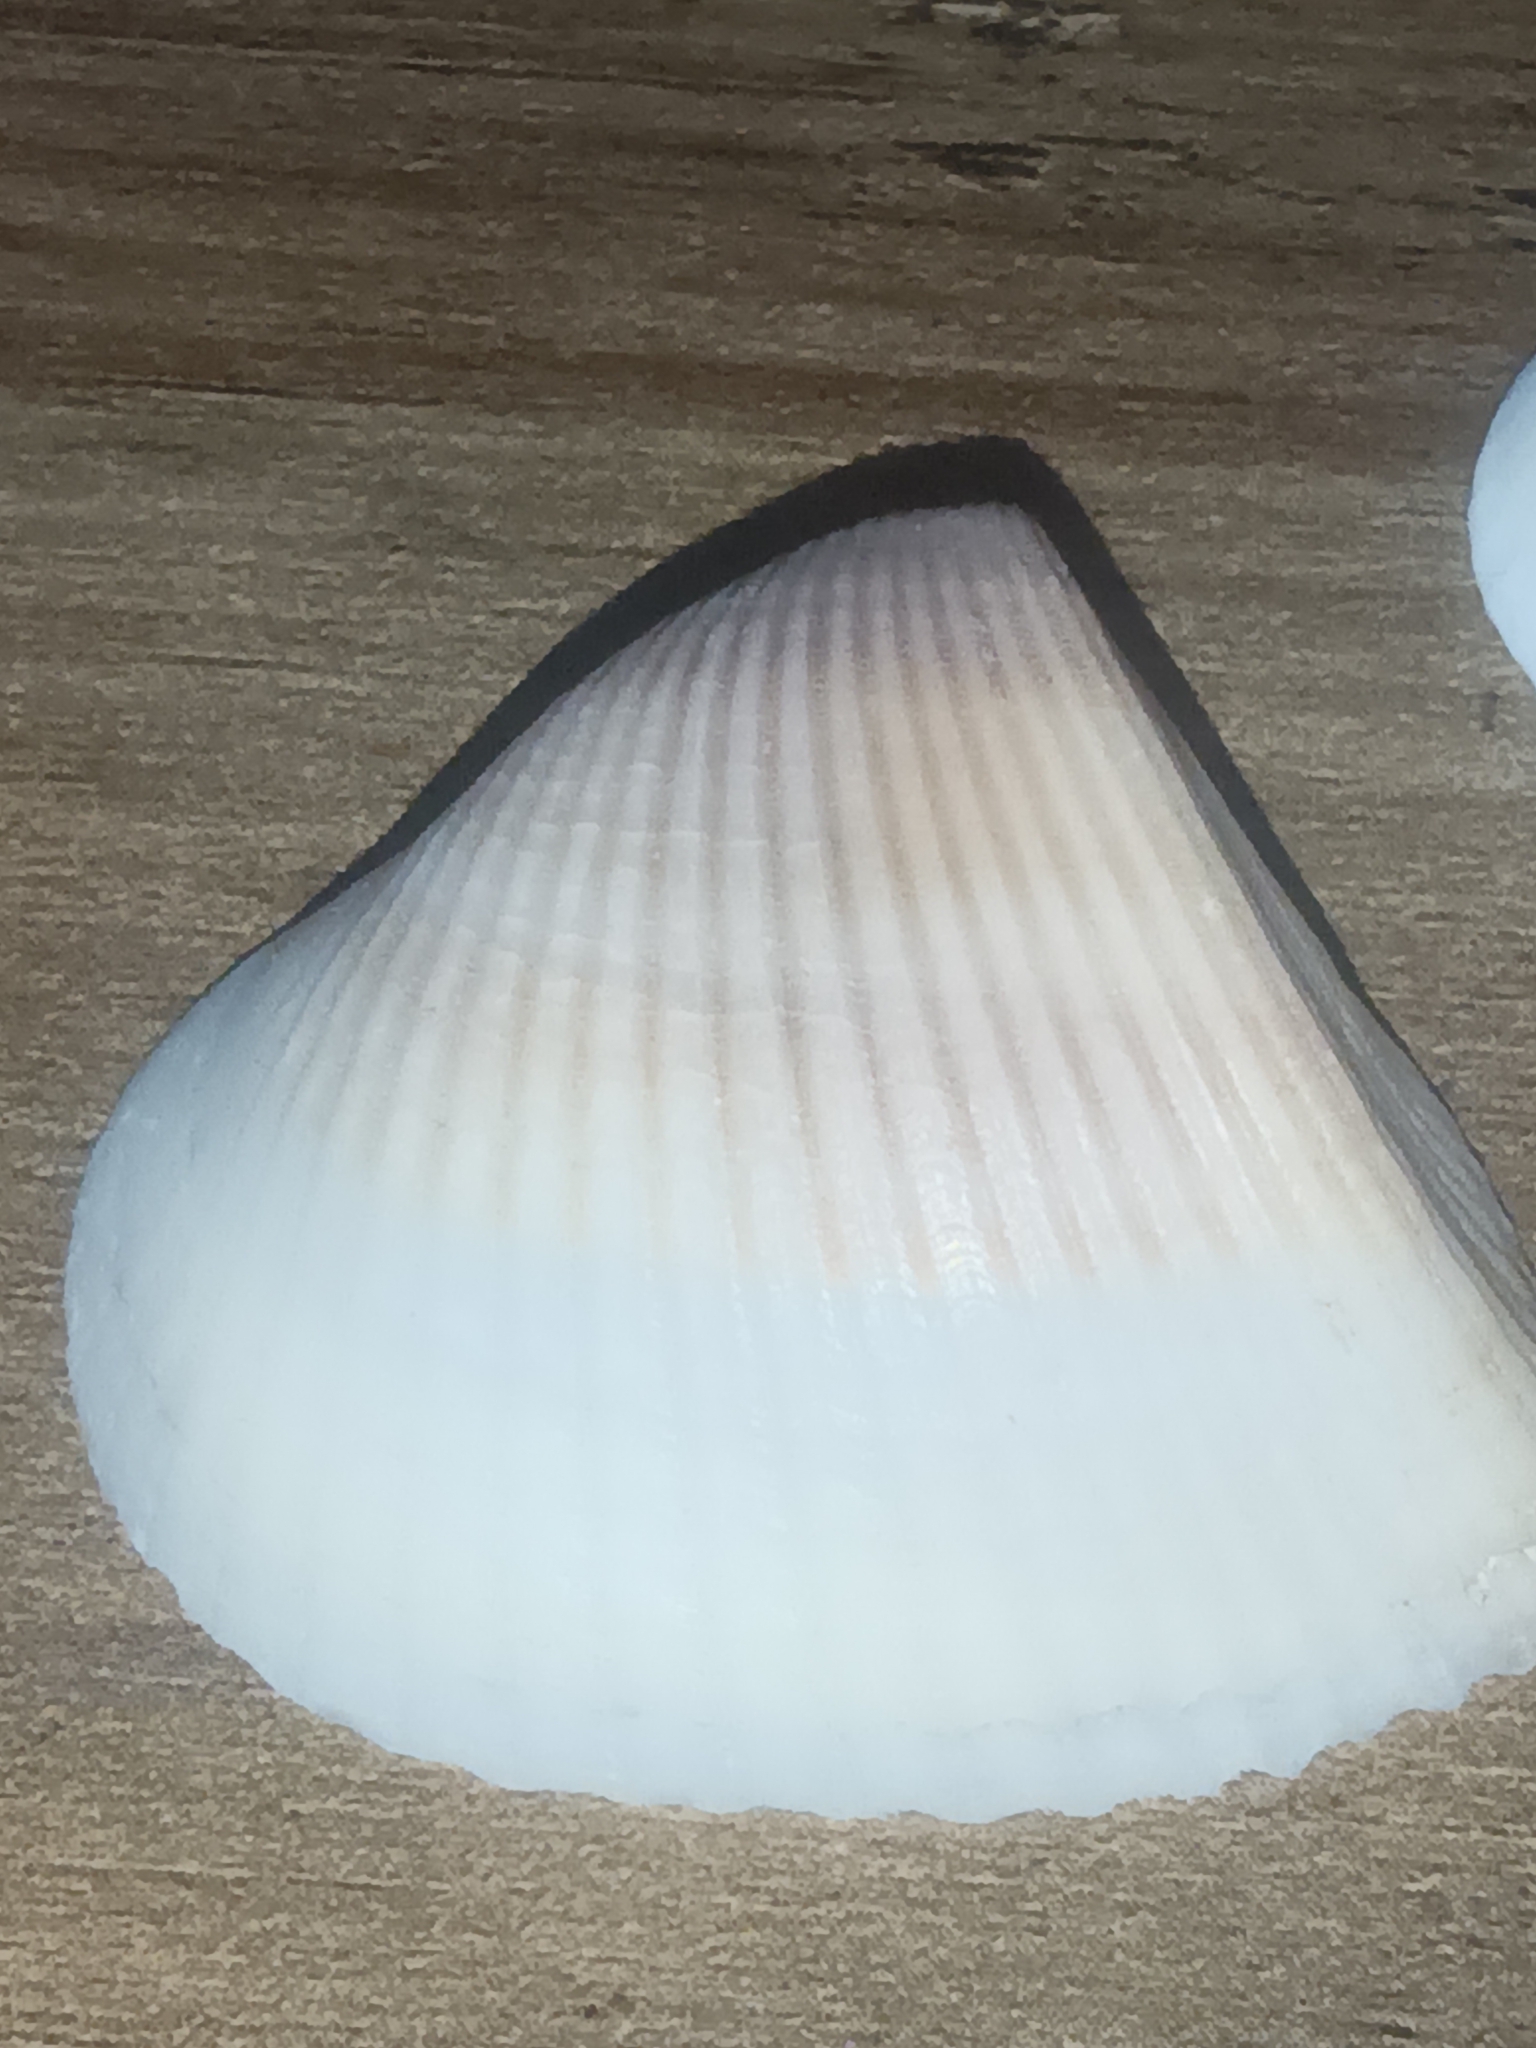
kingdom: Animalia
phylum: Mollusca
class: Bivalvia
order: Arcida
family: Noetiidae
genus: Noetia
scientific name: Noetia reversa
